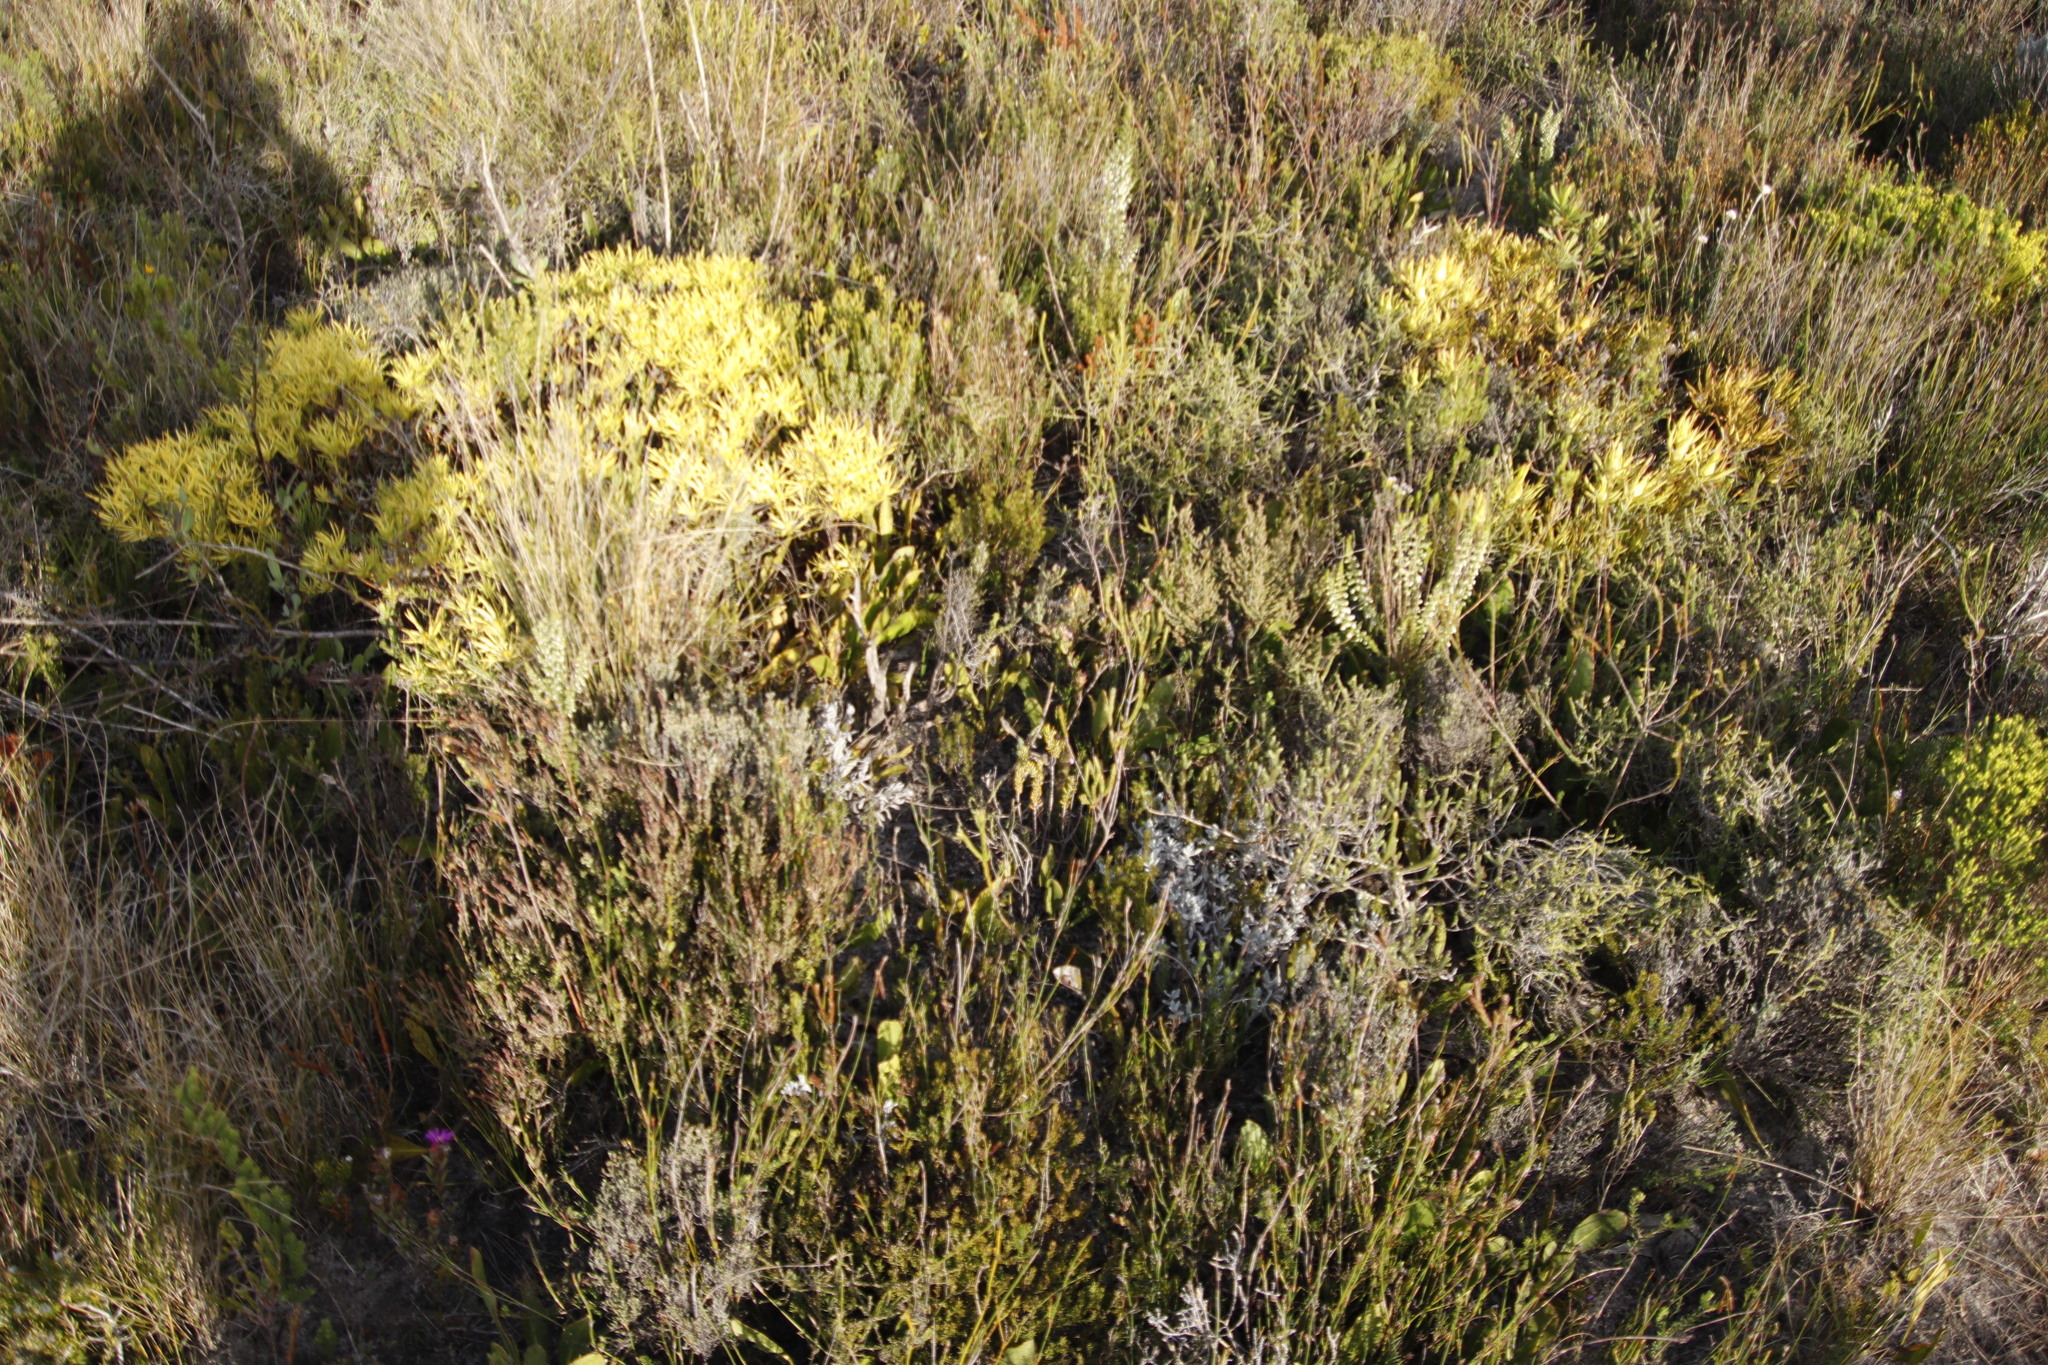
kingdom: Plantae
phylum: Tracheophyta
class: Magnoliopsida
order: Proteales
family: Proteaceae
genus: Protea
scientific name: Protea acaulos
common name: Common ground sugarbush
